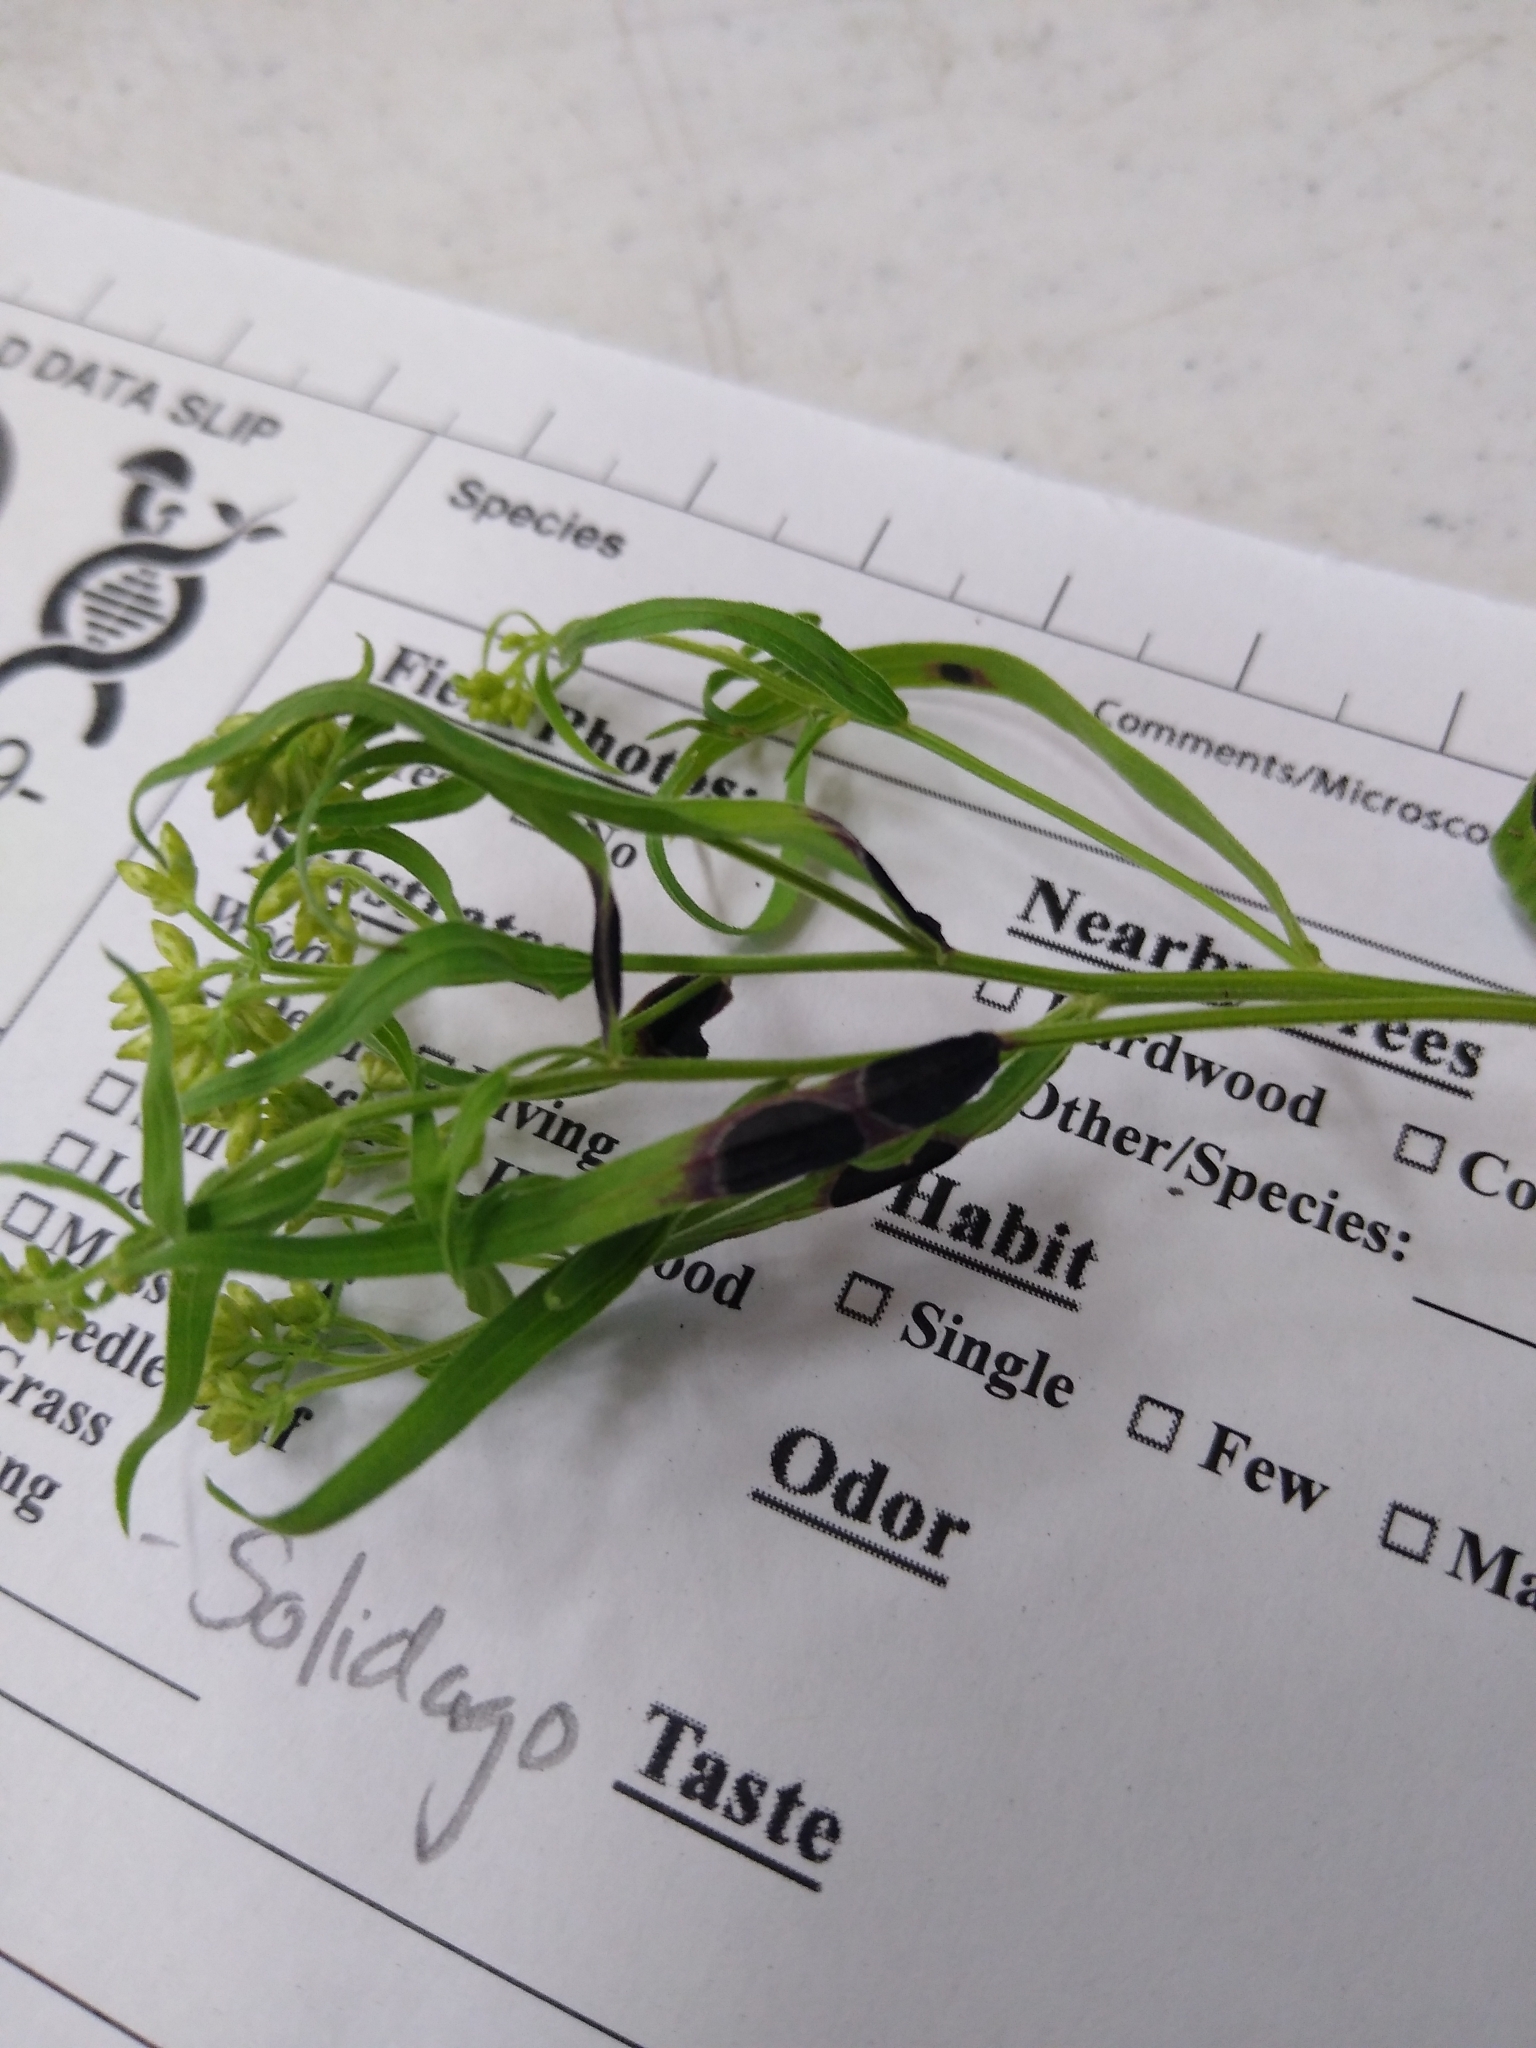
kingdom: Fungi
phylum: Ascomycota
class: Dothideomycetes
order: Botryosphaeriales
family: Botryosphaeriaceae
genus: Botryosphaeria
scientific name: Botryosphaeria dothidea
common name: Asteromyia gall midge fungus
